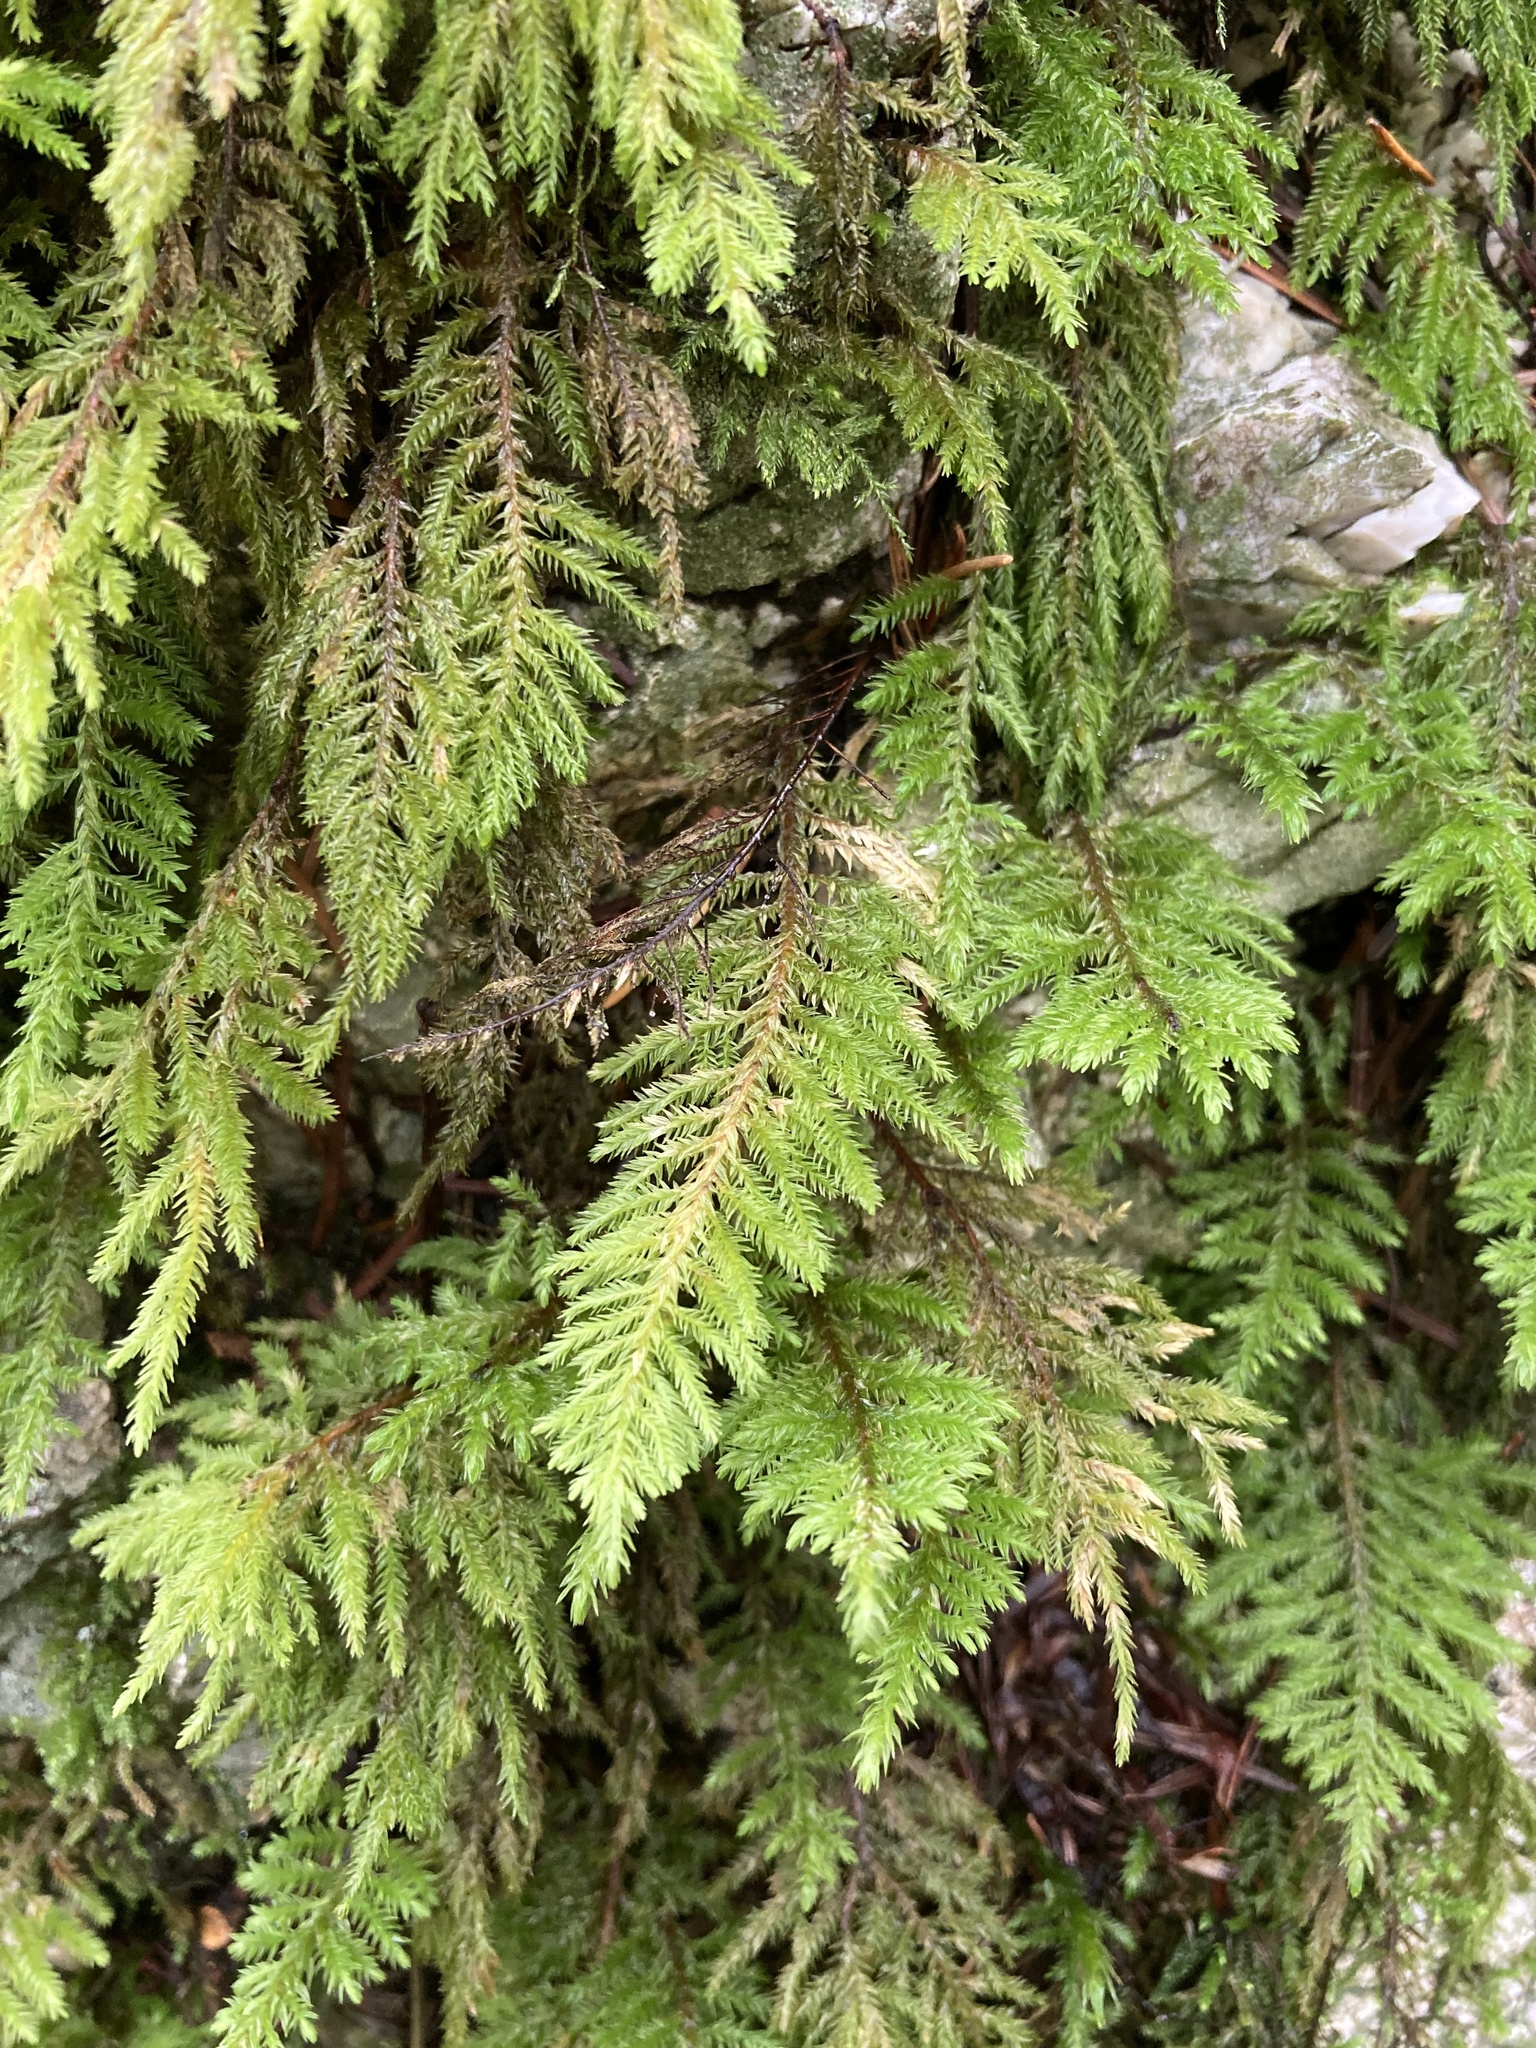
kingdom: Plantae
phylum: Bryophyta
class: Bryopsida
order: Hypnales
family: Cryphaeaceae
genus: Dendroalsia
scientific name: Dendroalsia abietina
